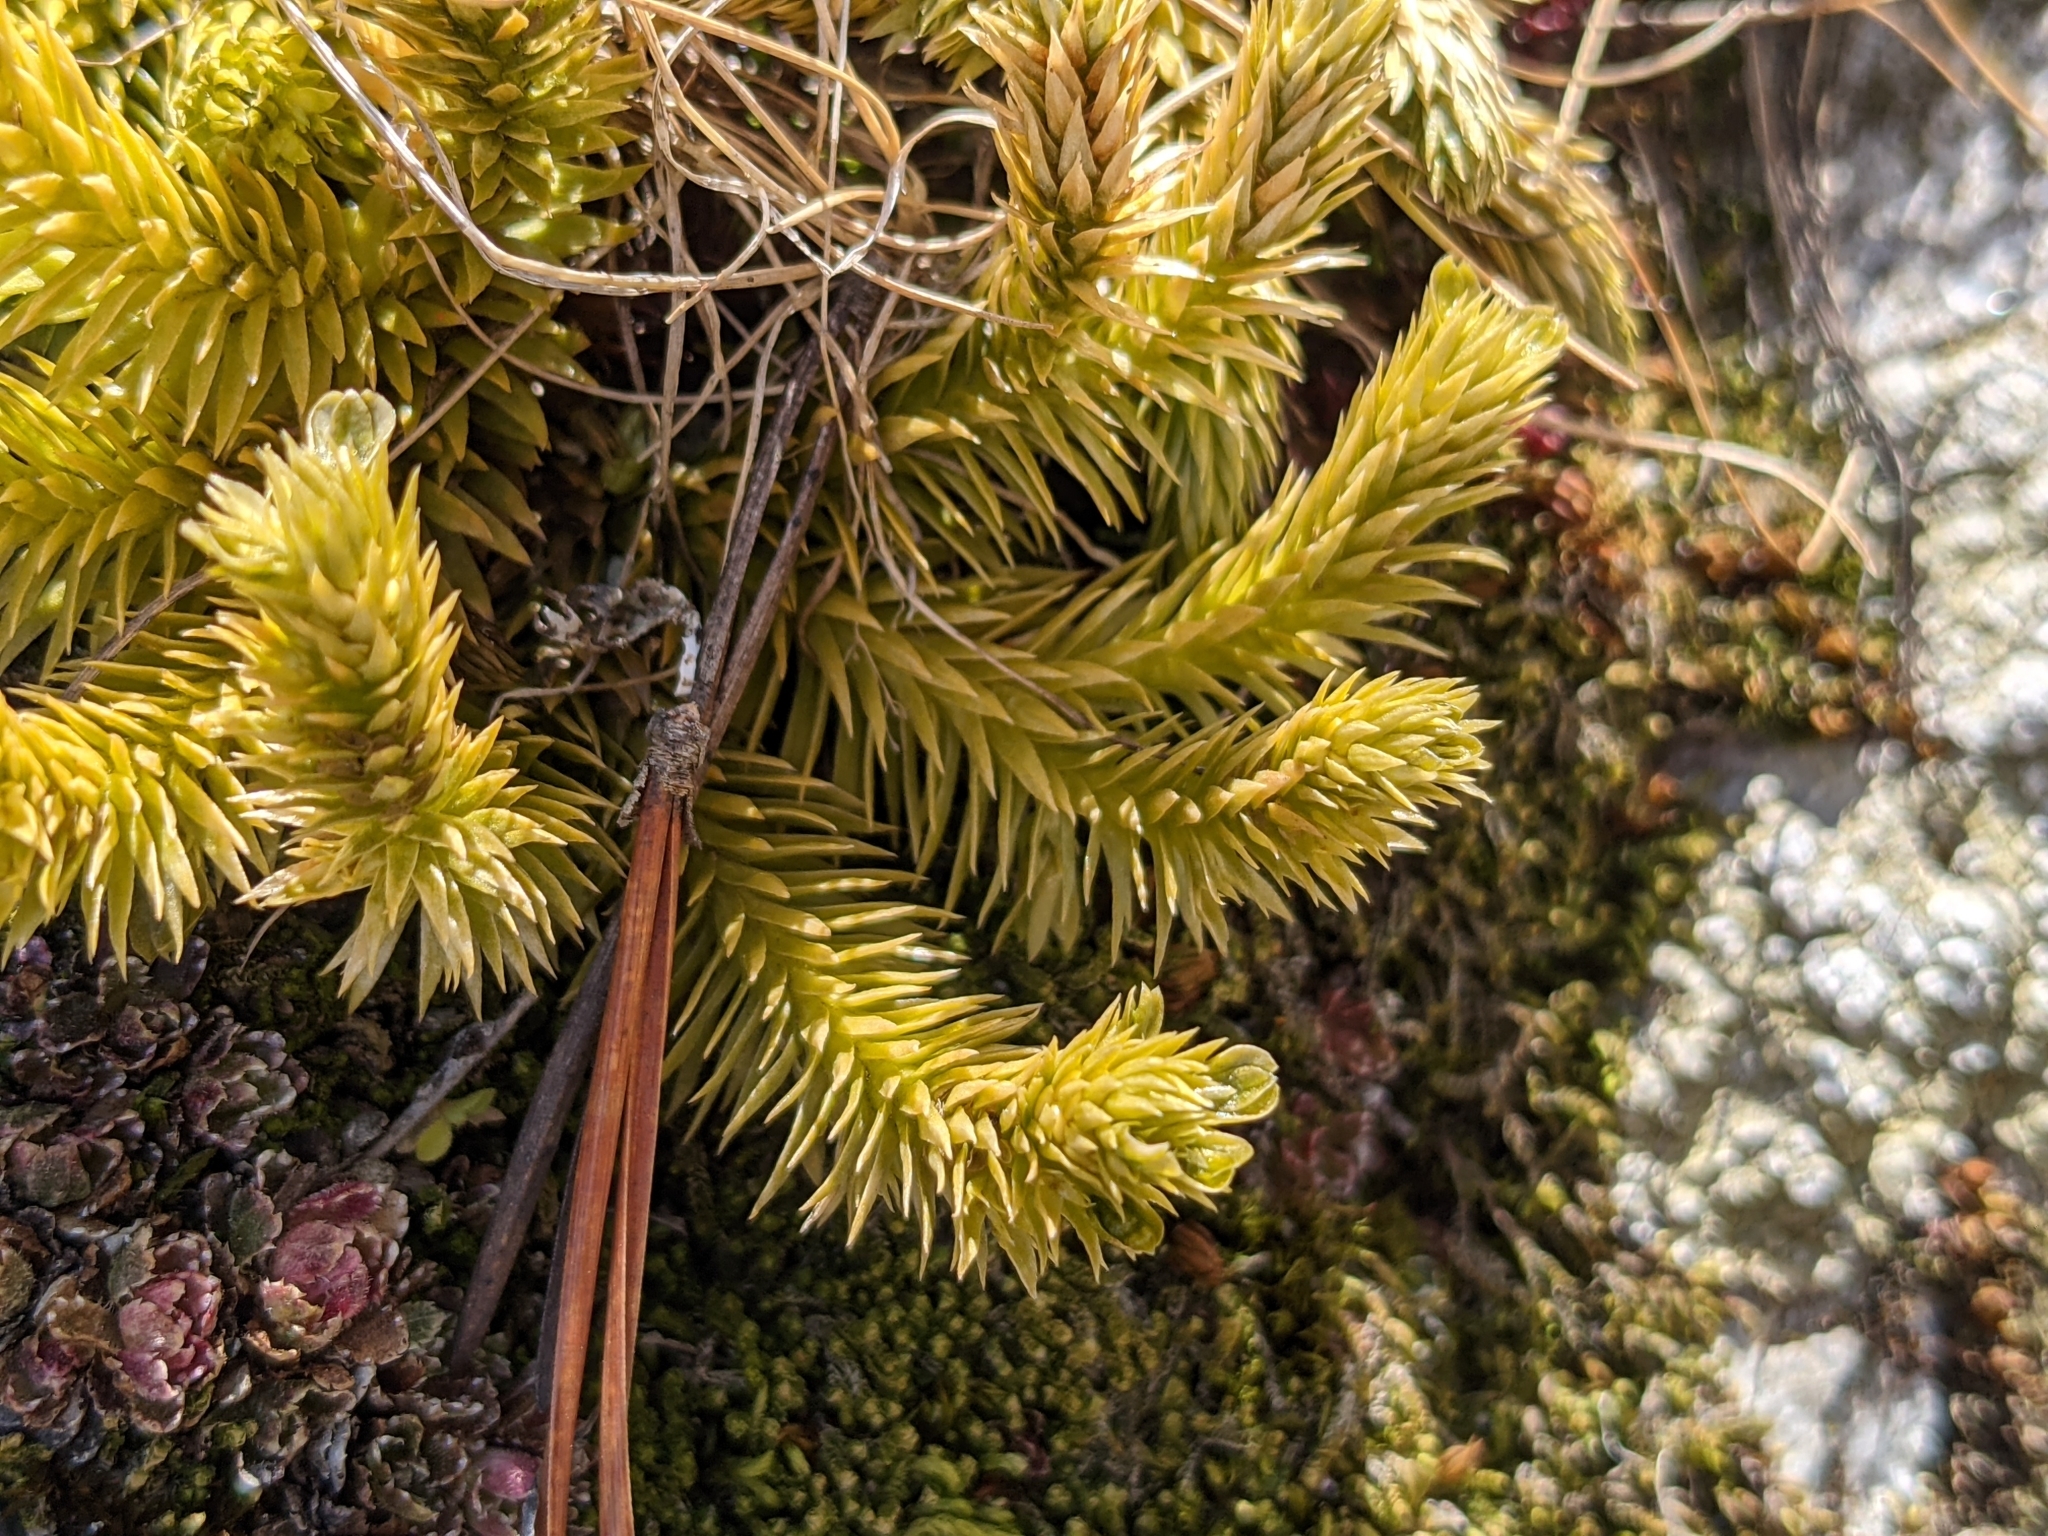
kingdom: Plantae
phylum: Tracheophyta
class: Lycopodiopsida
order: Lycopodiales
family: Lycopodiaceae
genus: Huperzia
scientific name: Huperzia selago
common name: Northern firmoss
